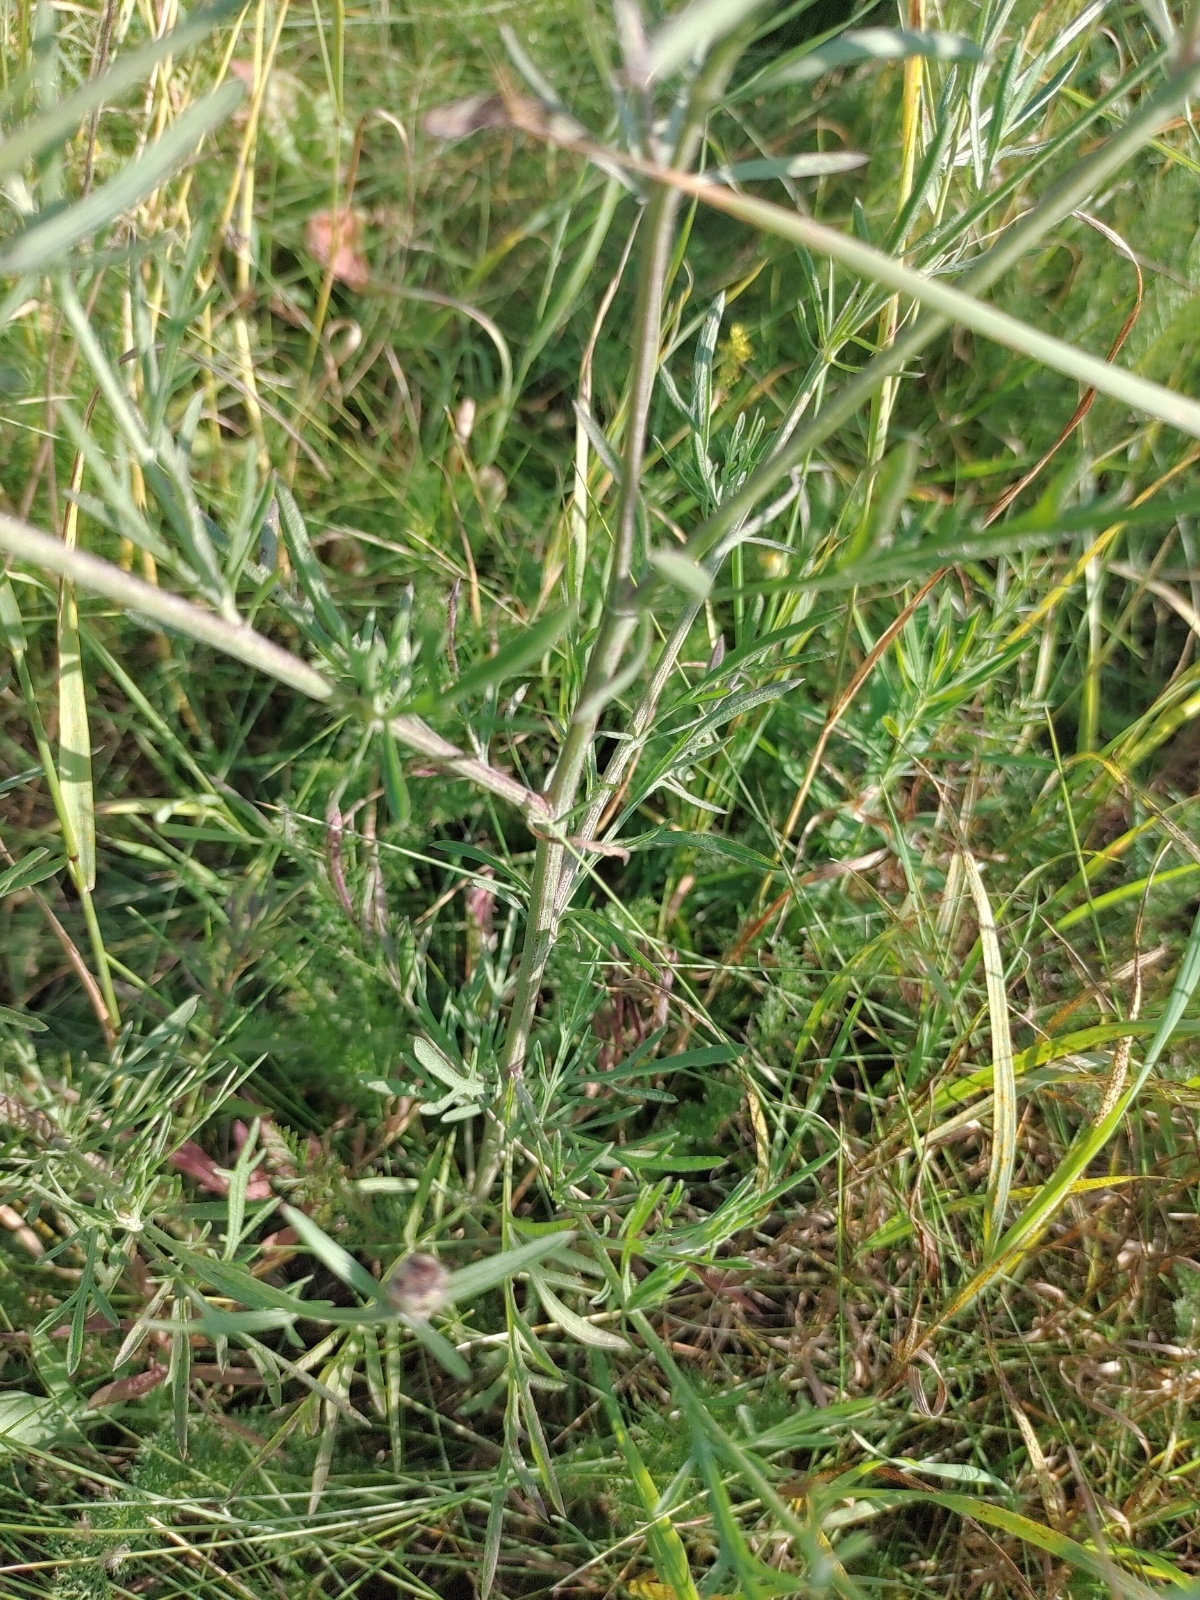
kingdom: Plantae
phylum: Tracheophyta
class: Magnoliopsida
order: Asterales
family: Asteraceae
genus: Centaurea
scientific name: Centaurea stoebe
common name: Spotted knapweed
